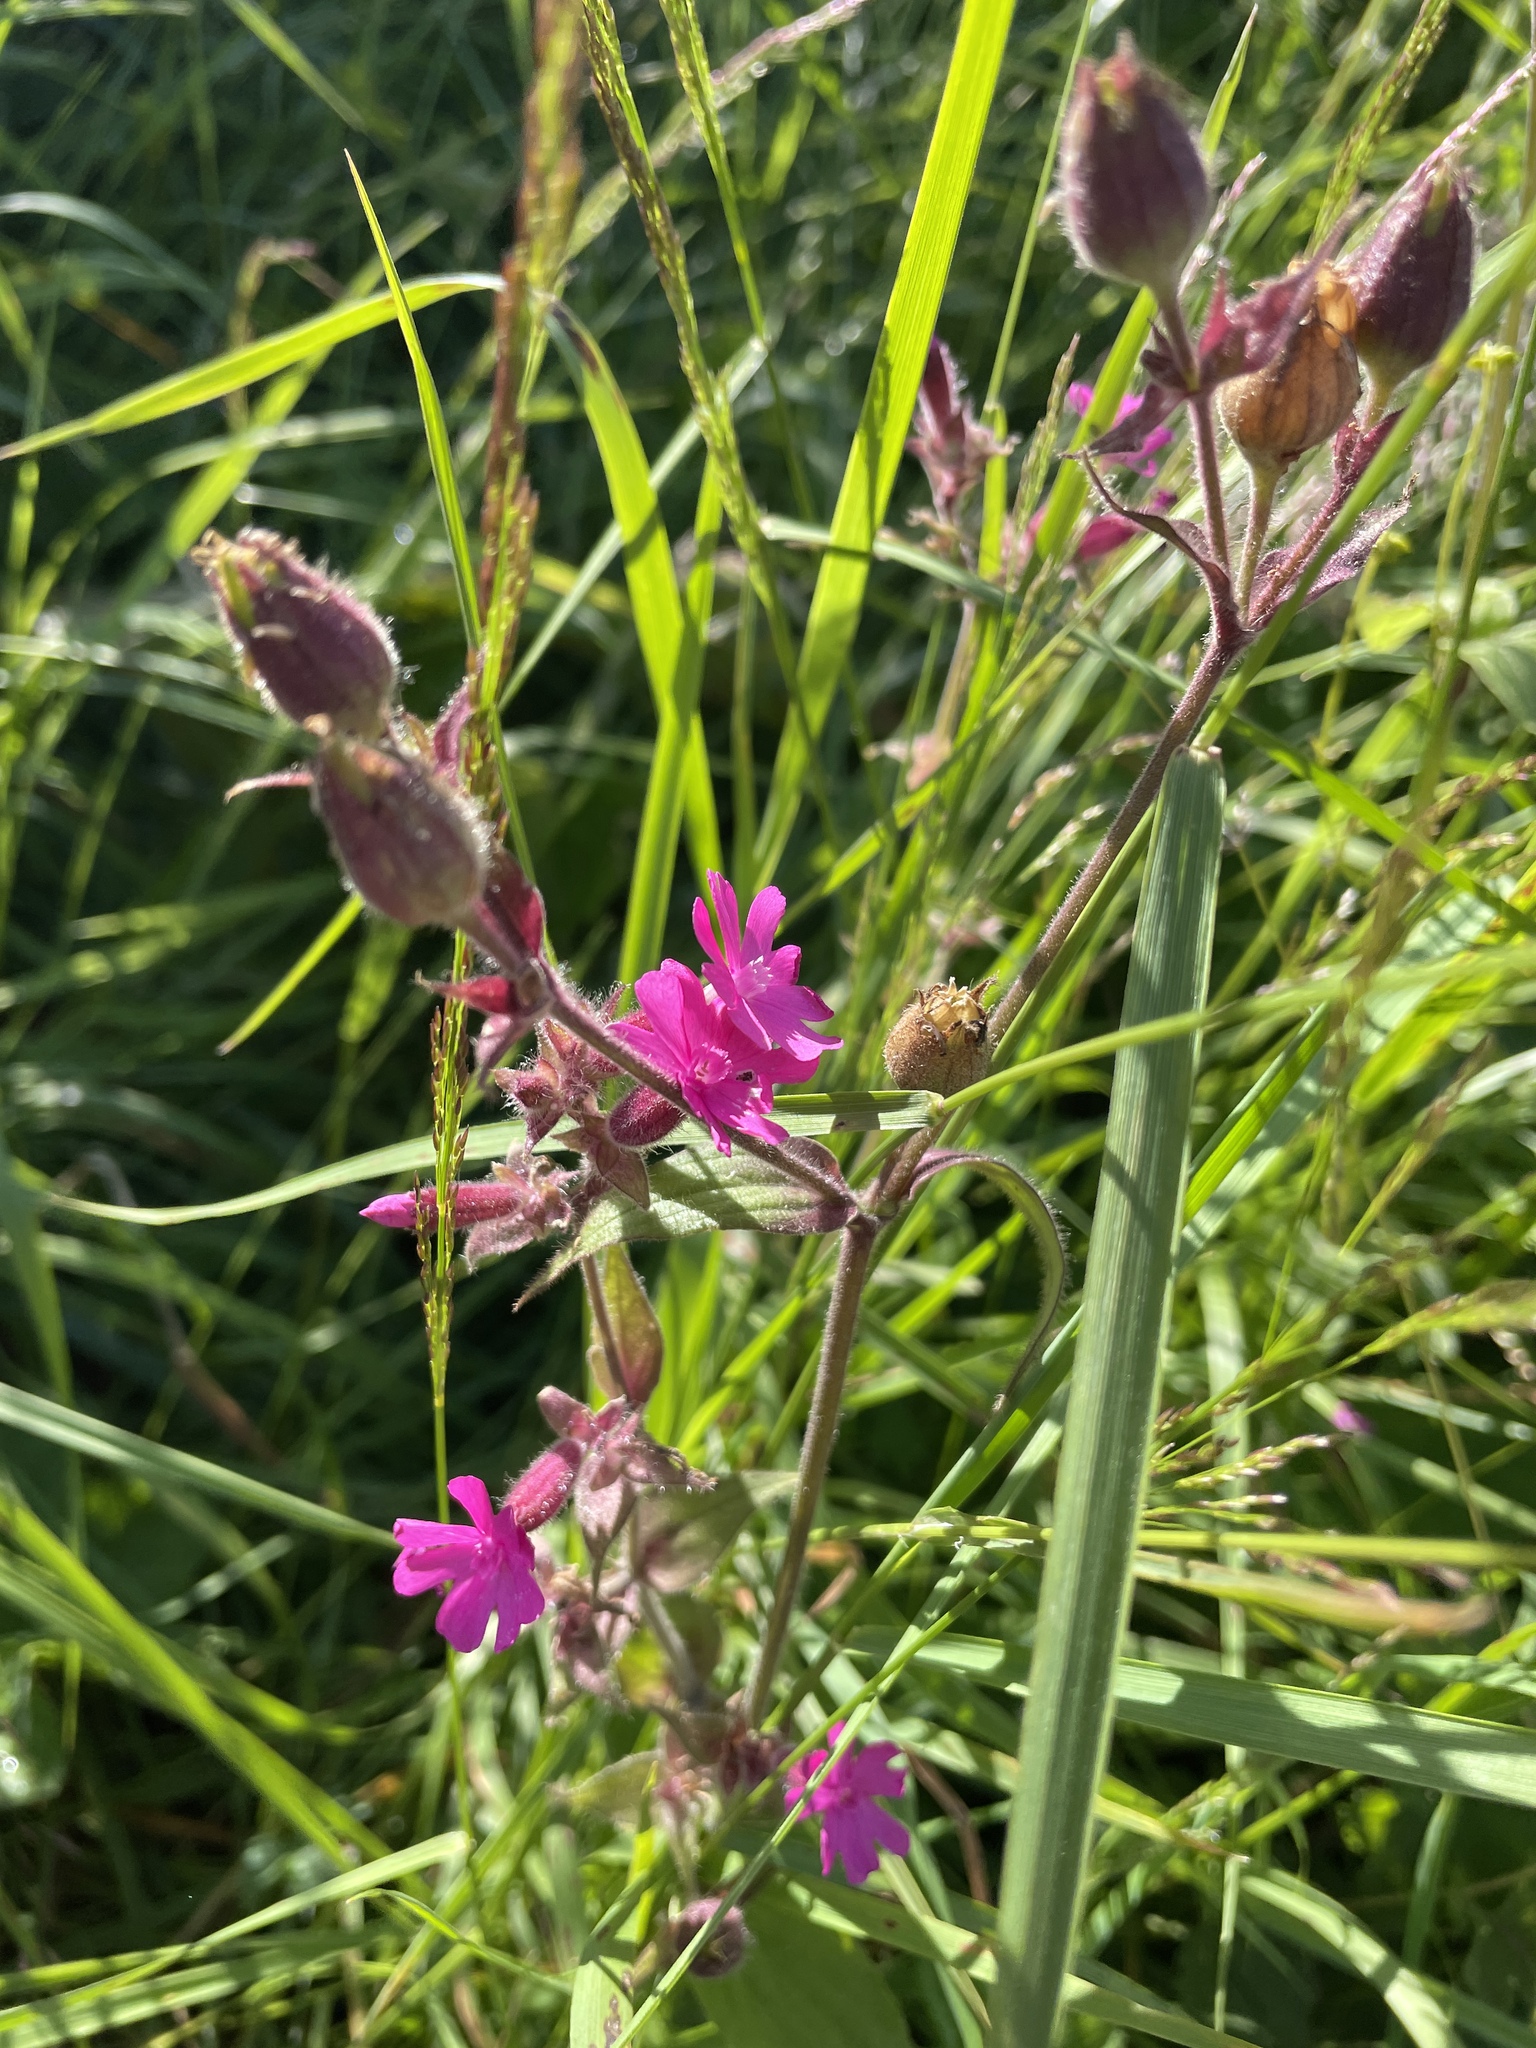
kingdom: Plantae
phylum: Tracheophyta
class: Magnoliopsida
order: Caryophyllales
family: Caryophyllaceae
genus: Silene
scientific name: Silene dioica
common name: Red campion
